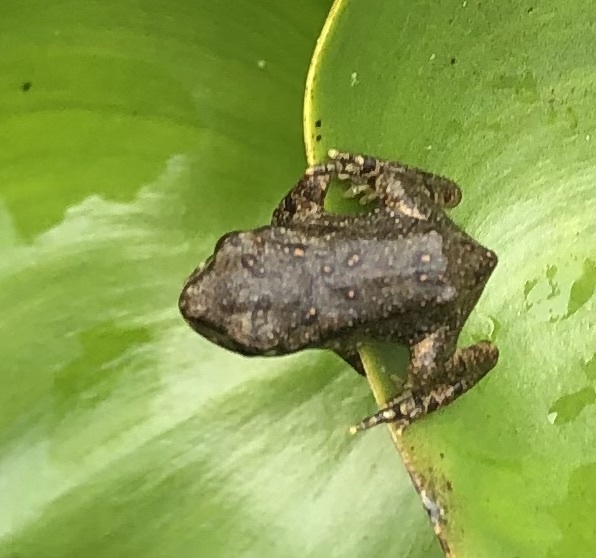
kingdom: Animalia
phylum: Chordata
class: Amphibia
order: Anura
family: Bufonidae
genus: Anaxyrus
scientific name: Anaxyrus americanus
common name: American toad
